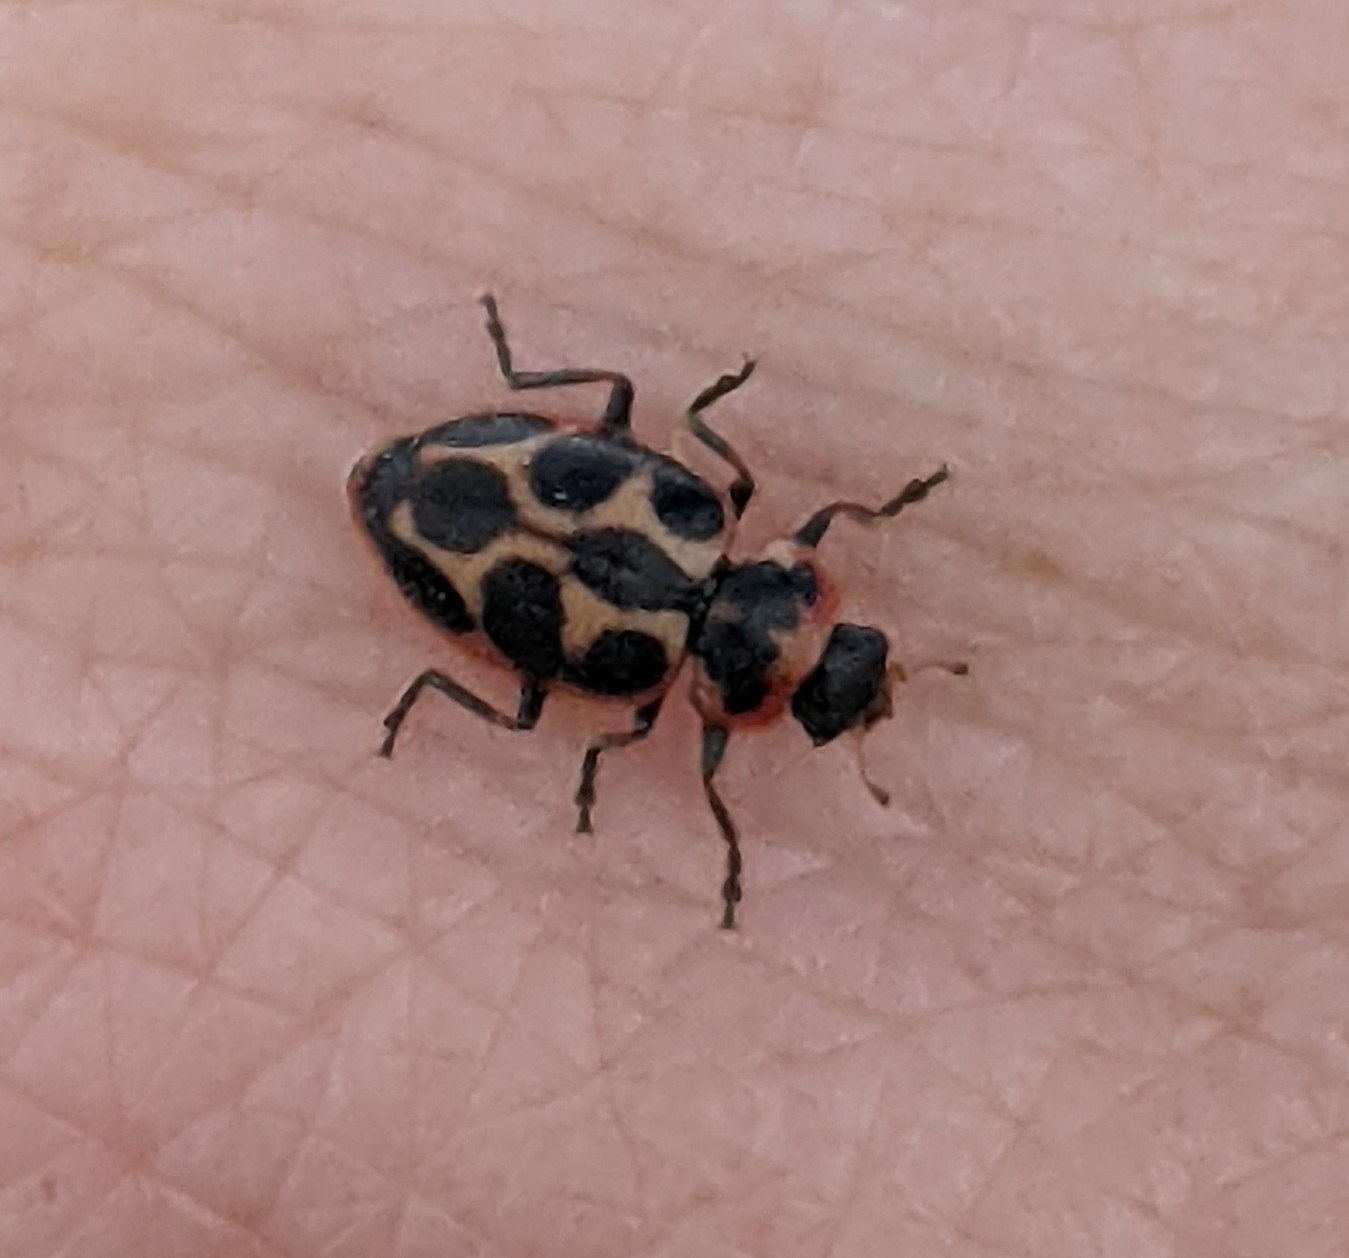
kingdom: Animalia
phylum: Arthropoda
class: Insecta
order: Coleoptera
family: Coccinellidae
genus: Naemia
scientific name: Naemia seriata
